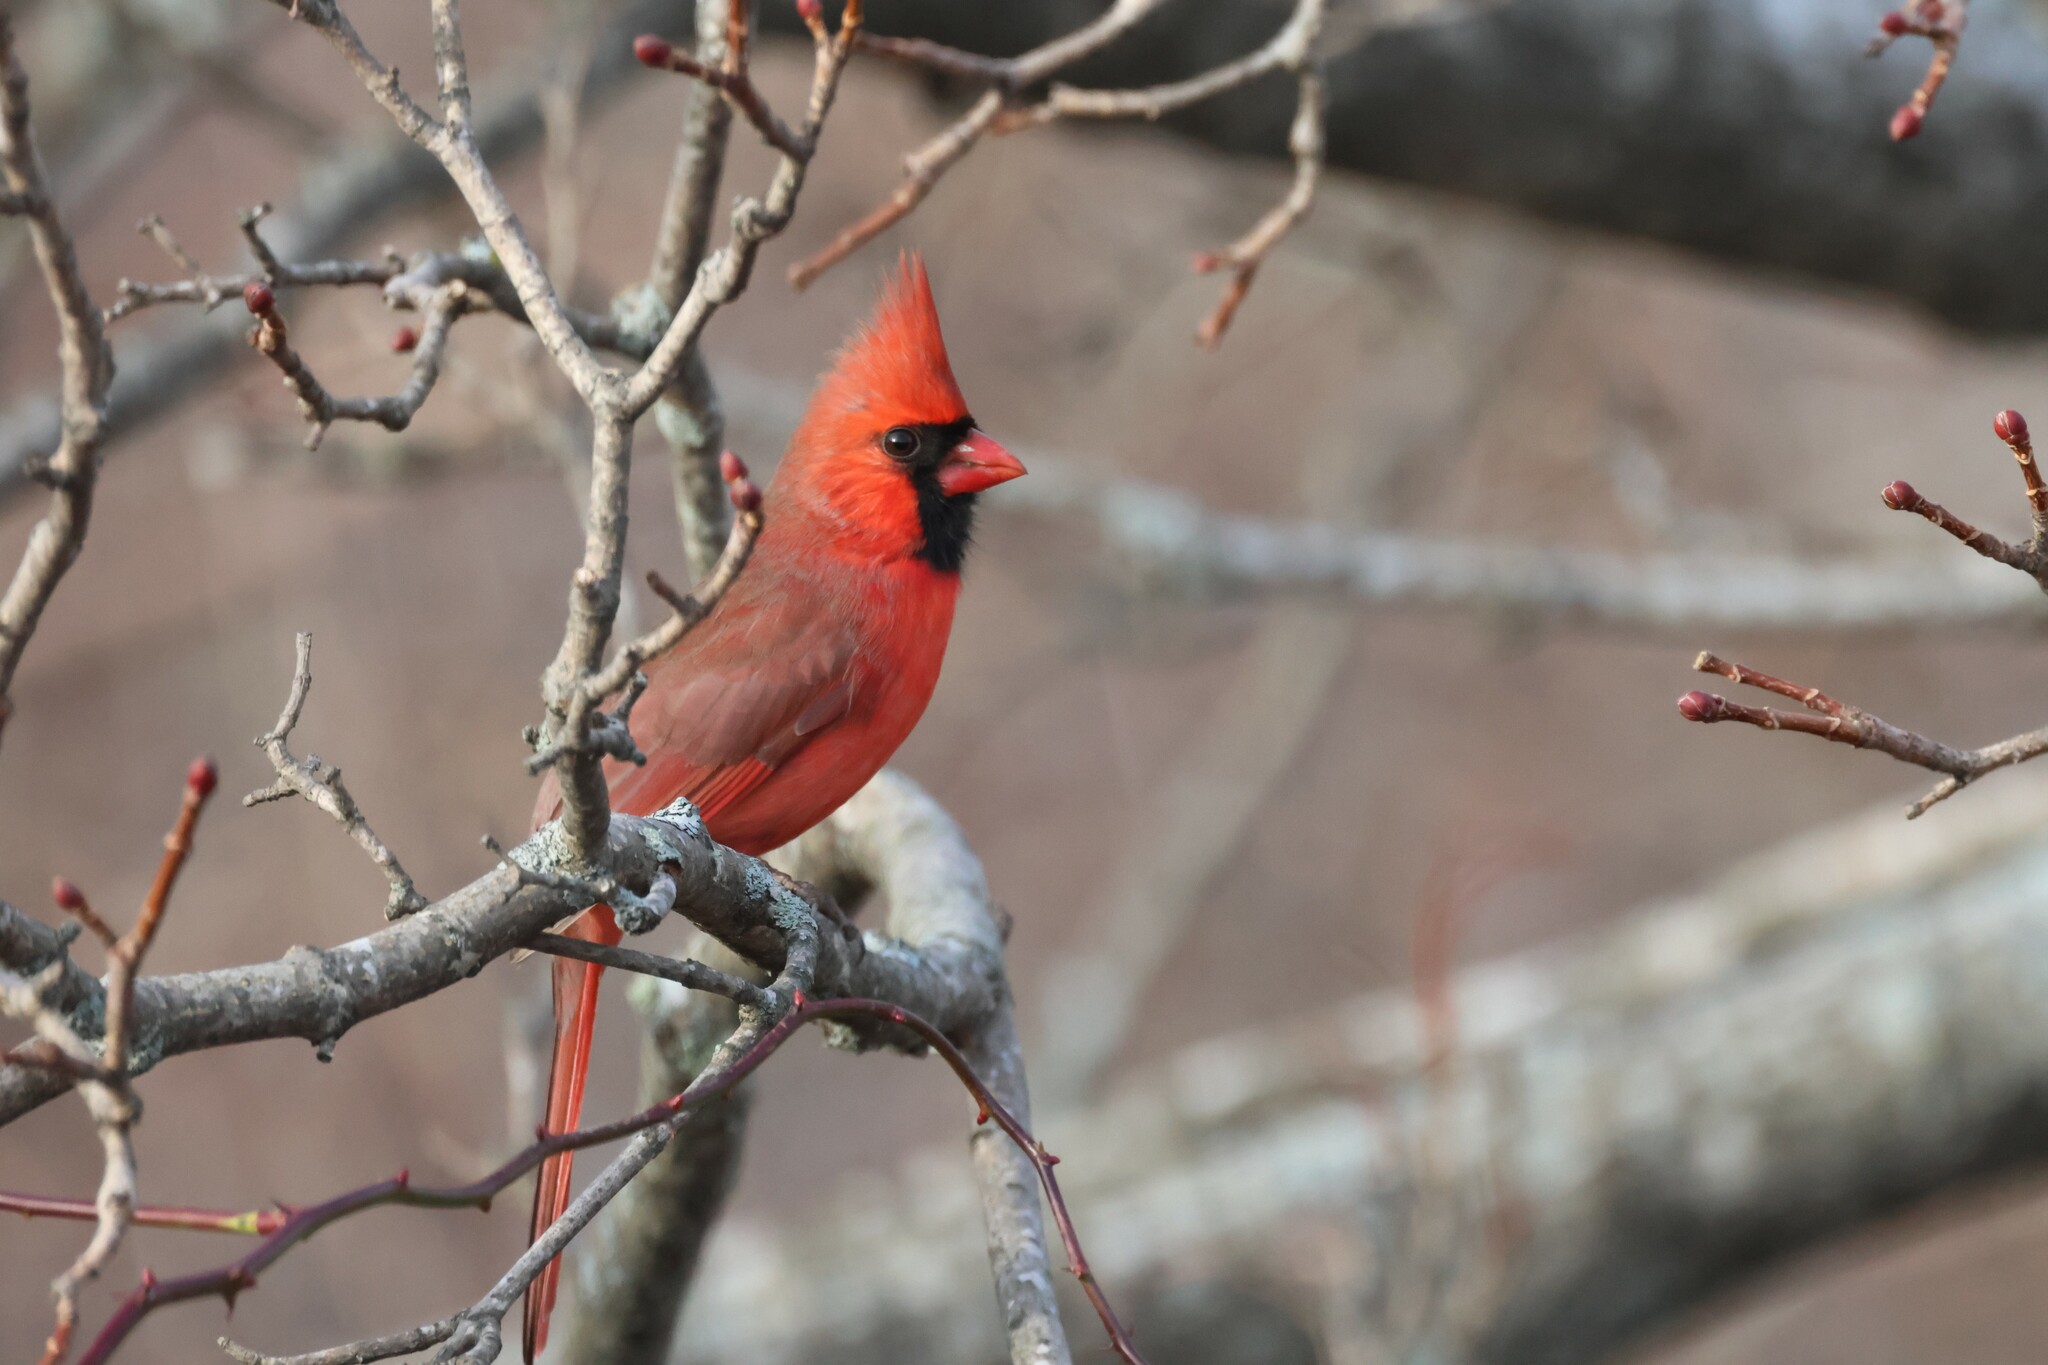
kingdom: Animalia
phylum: Chordata
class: Aves
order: Passeriformes
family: Cardinalidae
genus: Cardinalis
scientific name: Cardinalis cardinalis
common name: Northern cardinal
